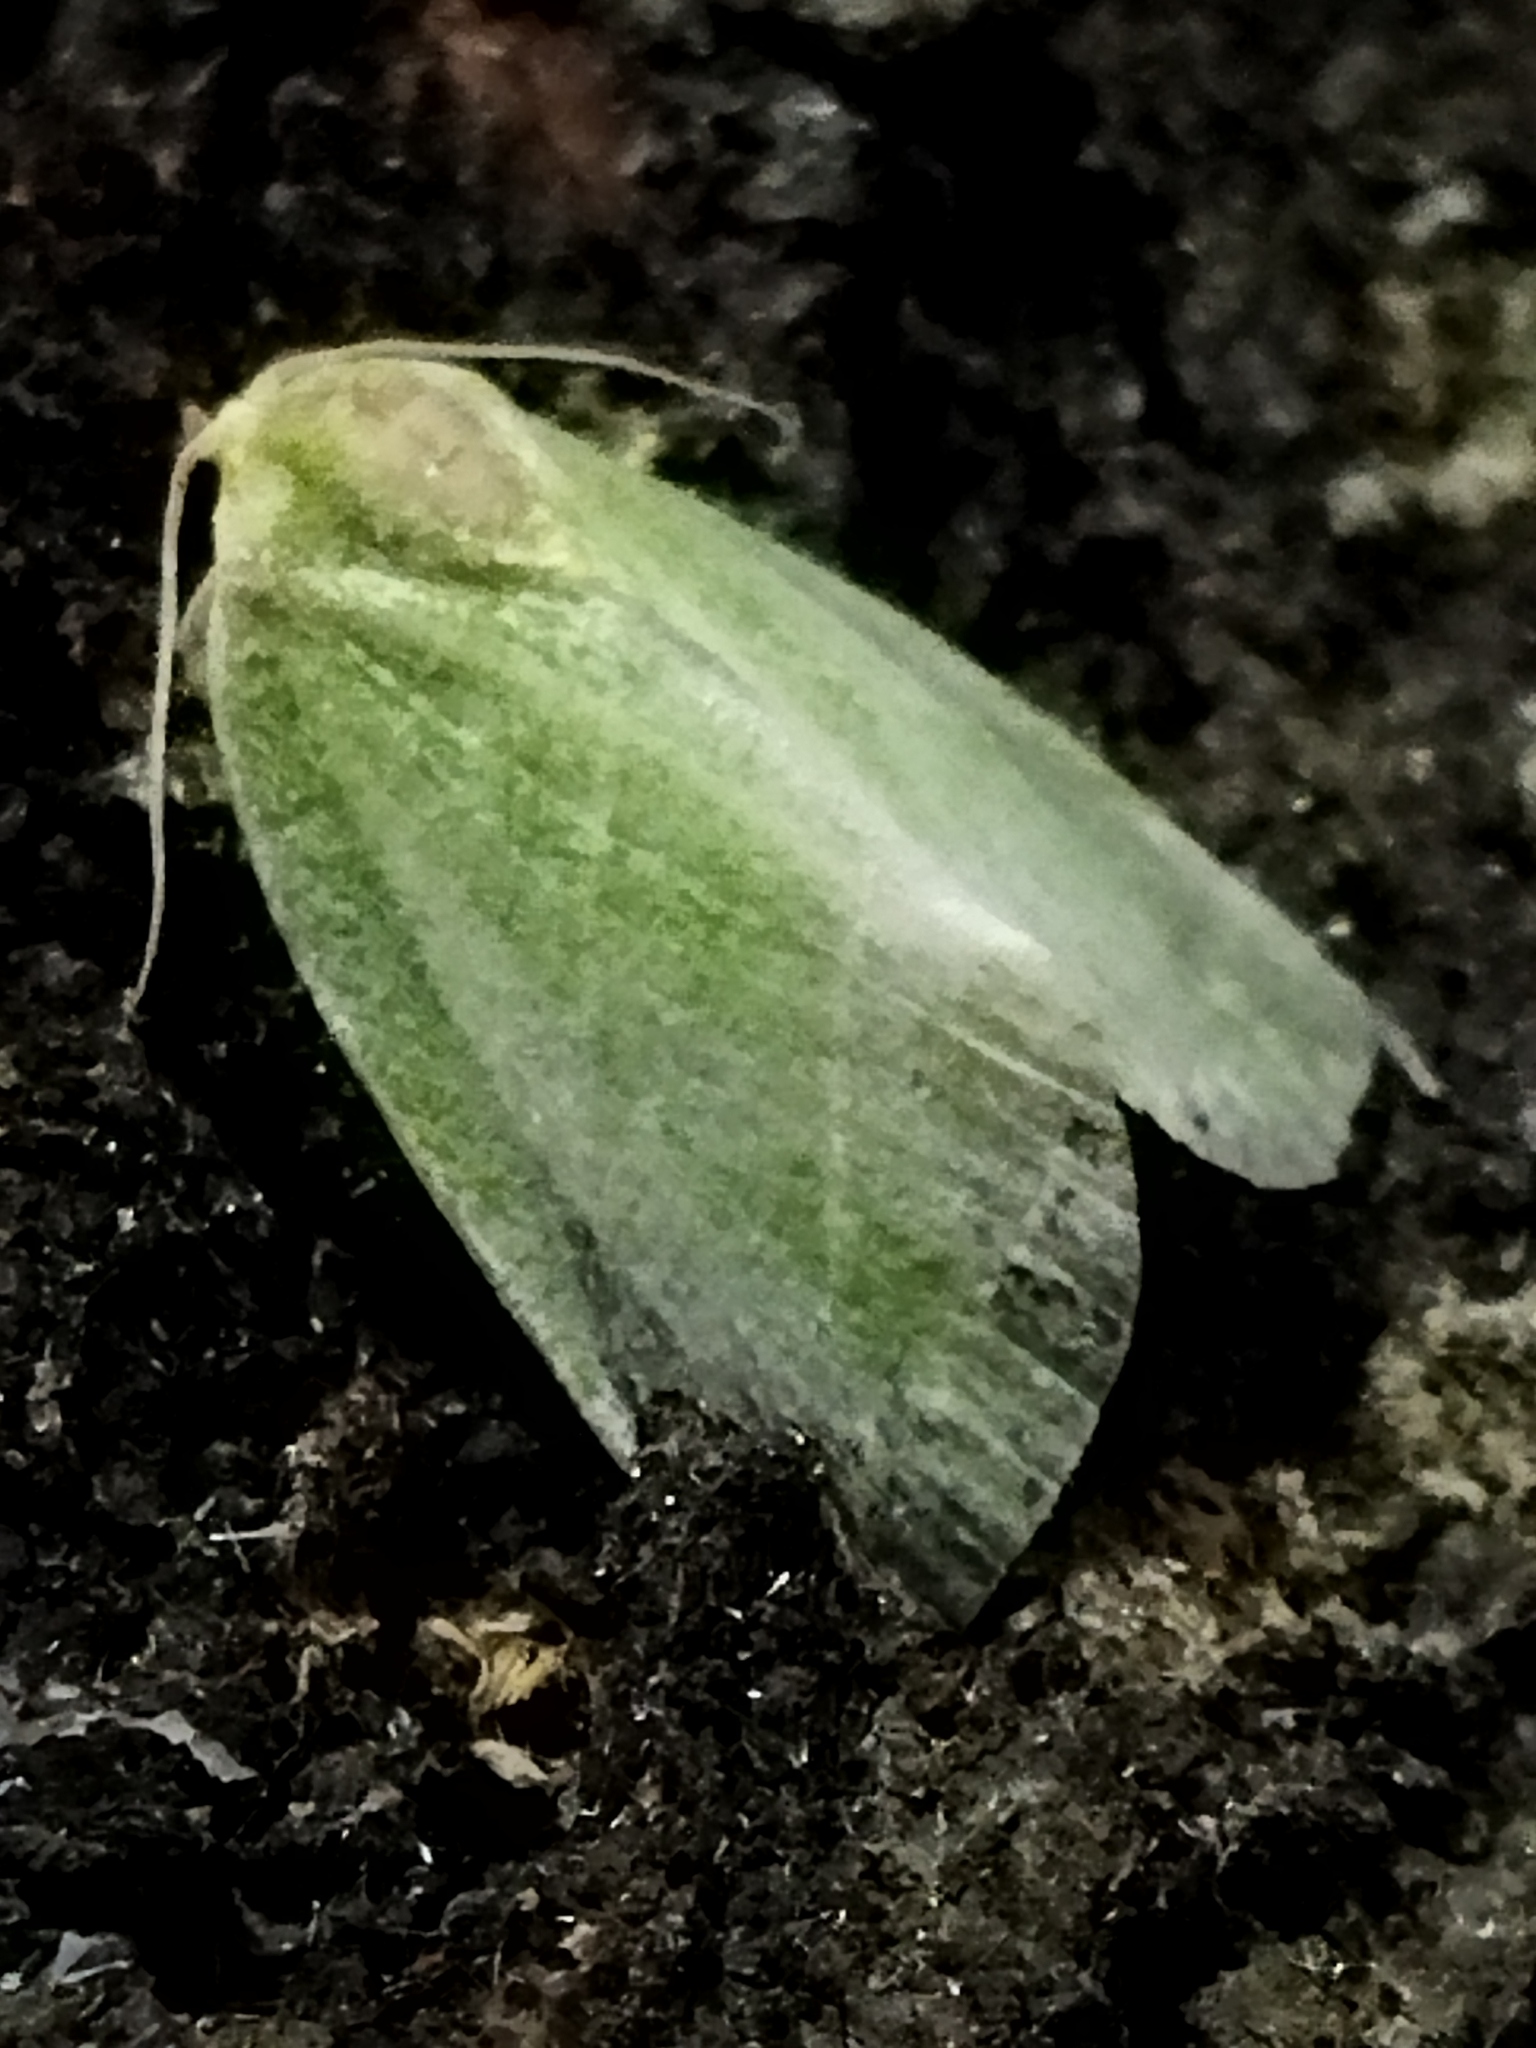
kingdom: Animalia
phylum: Arthropoda
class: Insecta
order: Lepidoptera
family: Nolidae
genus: Bena
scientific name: Bena bicolorana
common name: Scarce silver-lines
